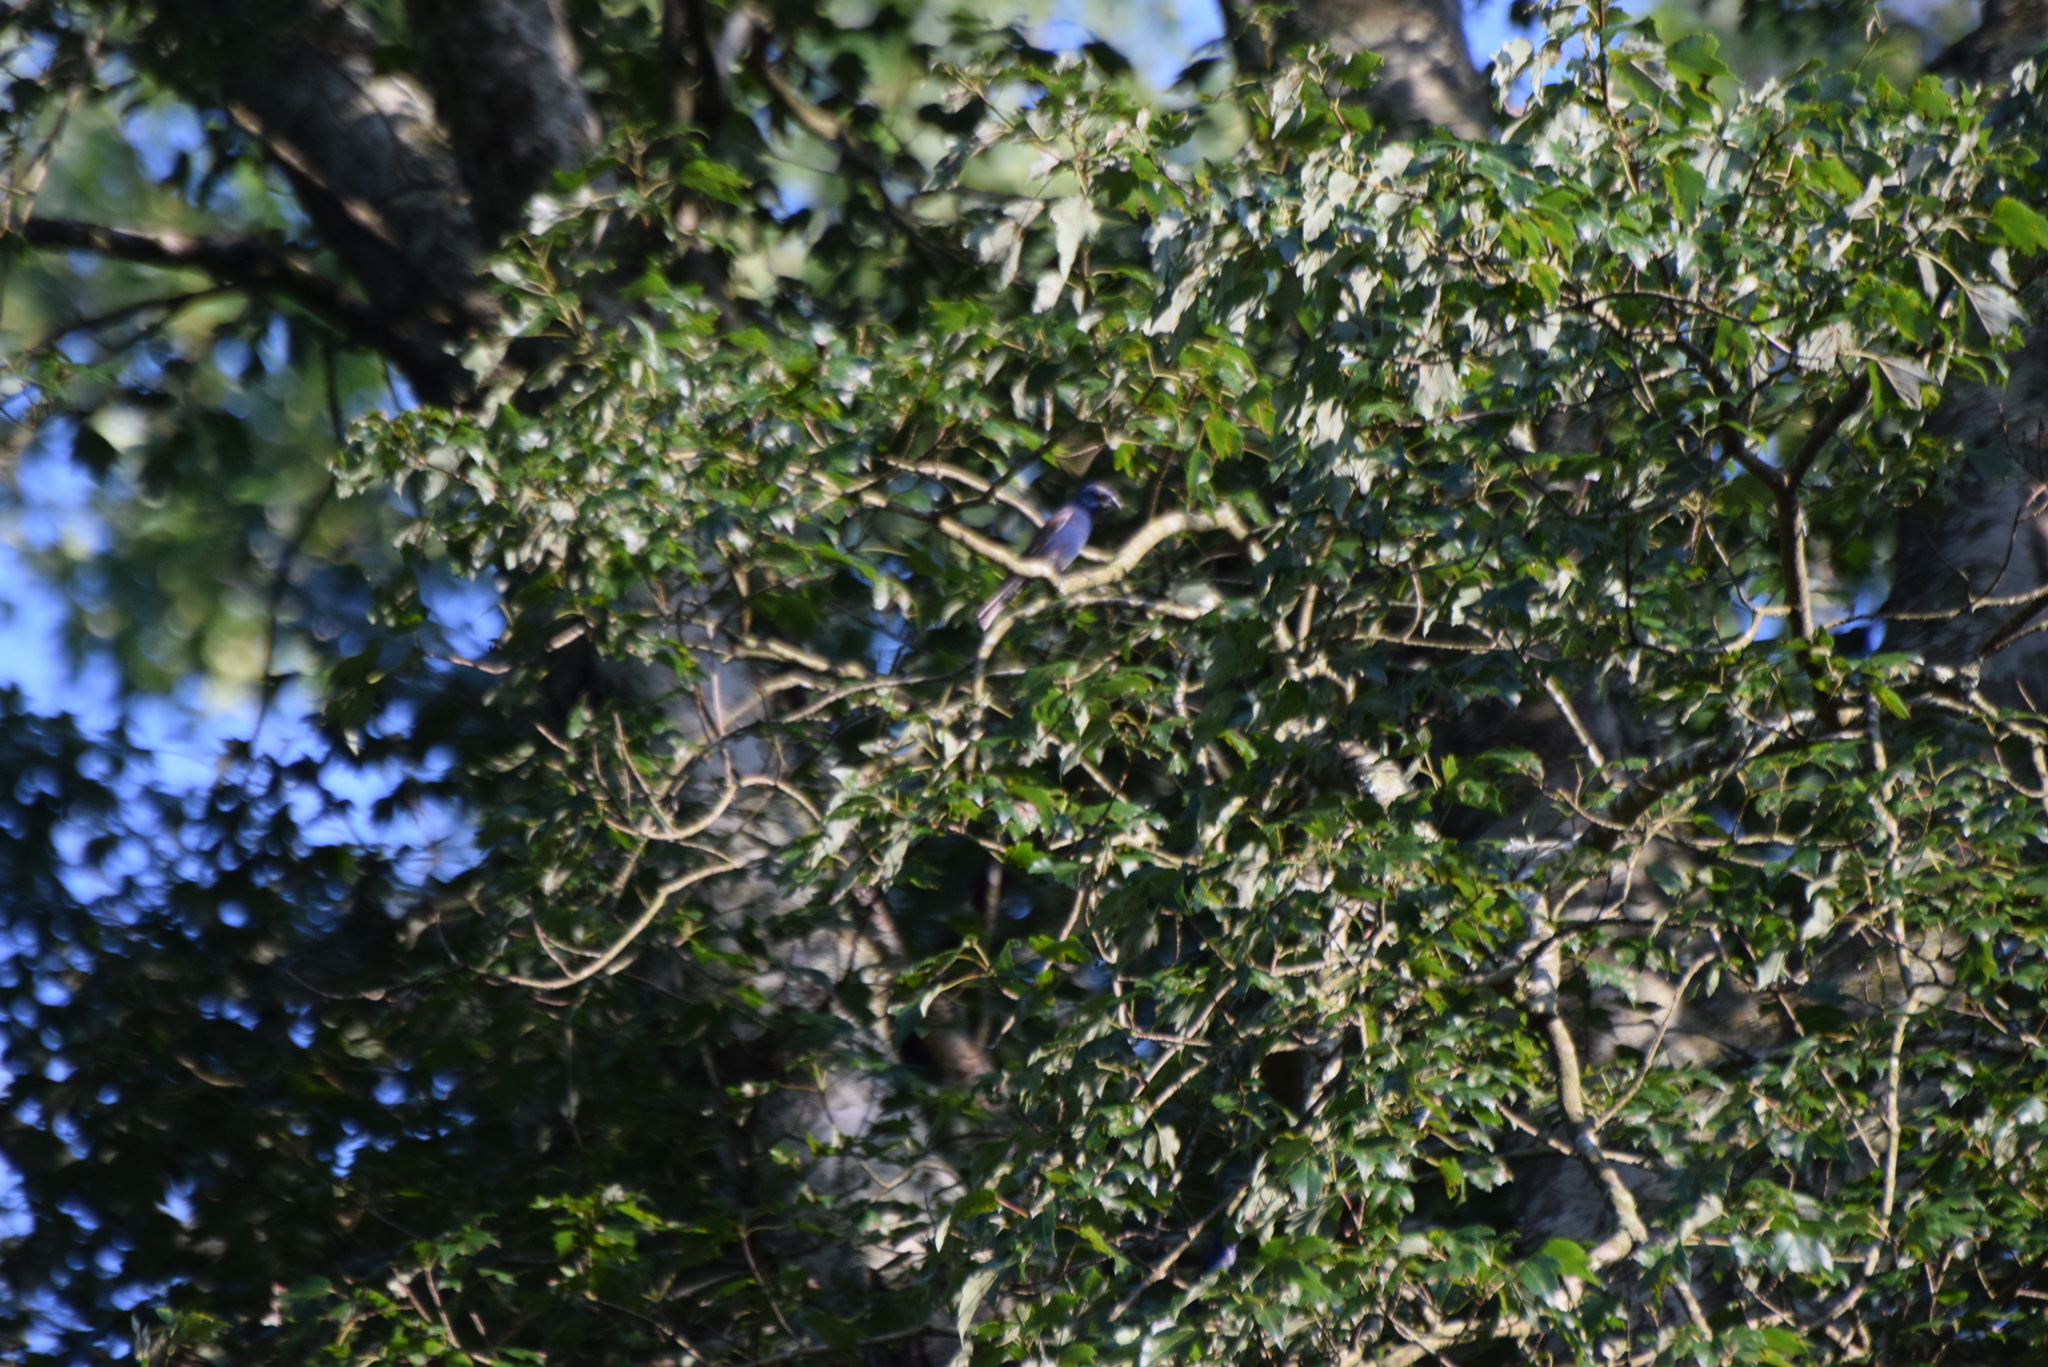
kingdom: Animalia
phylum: Chordata
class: Aves
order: Passeriformes
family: Cardinalidae
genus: Passerina
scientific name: Passerina caerulea
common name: Blue grosbeak
